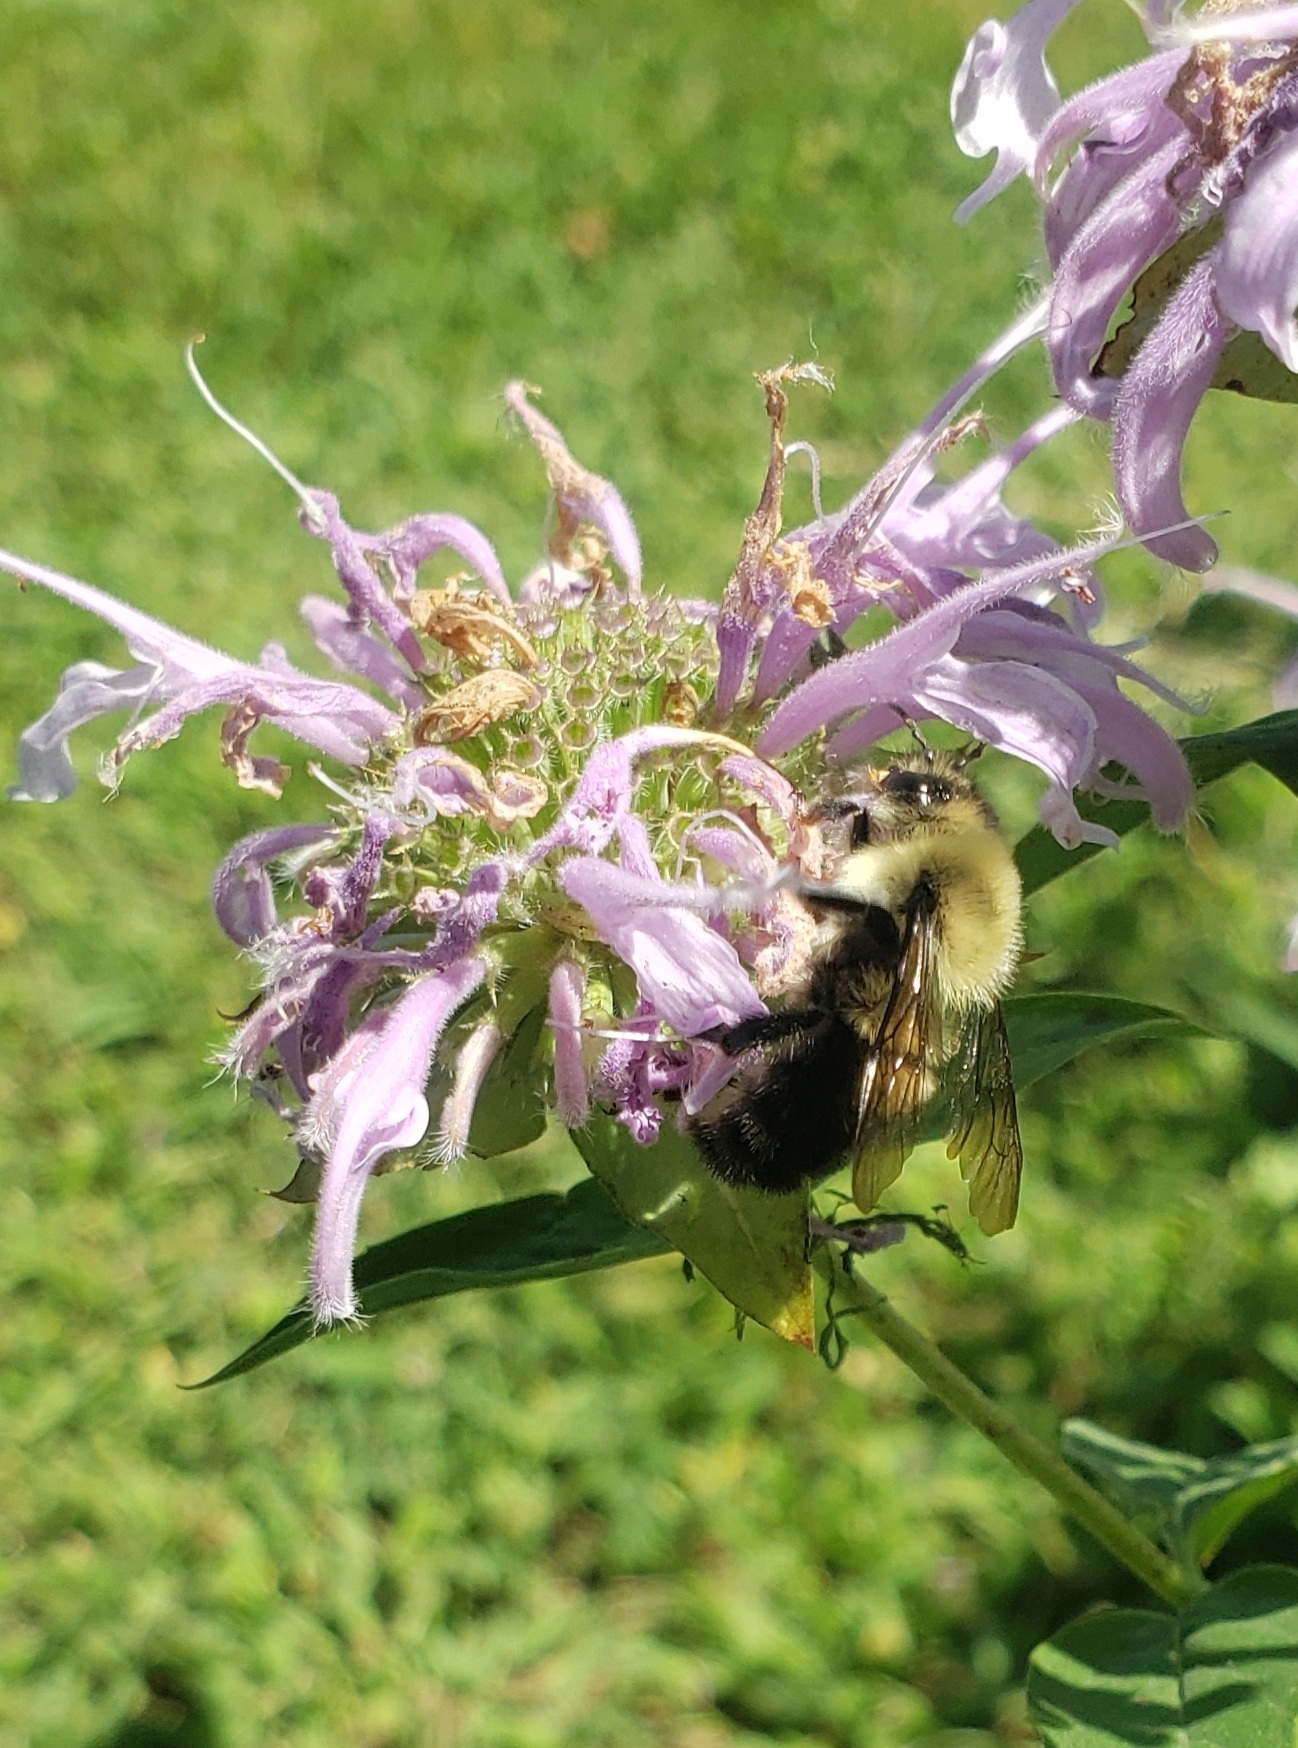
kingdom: Animalia
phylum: Arthropoda
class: Insecta
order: Hymenoptera
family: Apidae
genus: Bombus
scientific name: Bombus bimaculatus
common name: Two-spotted bumble bee
